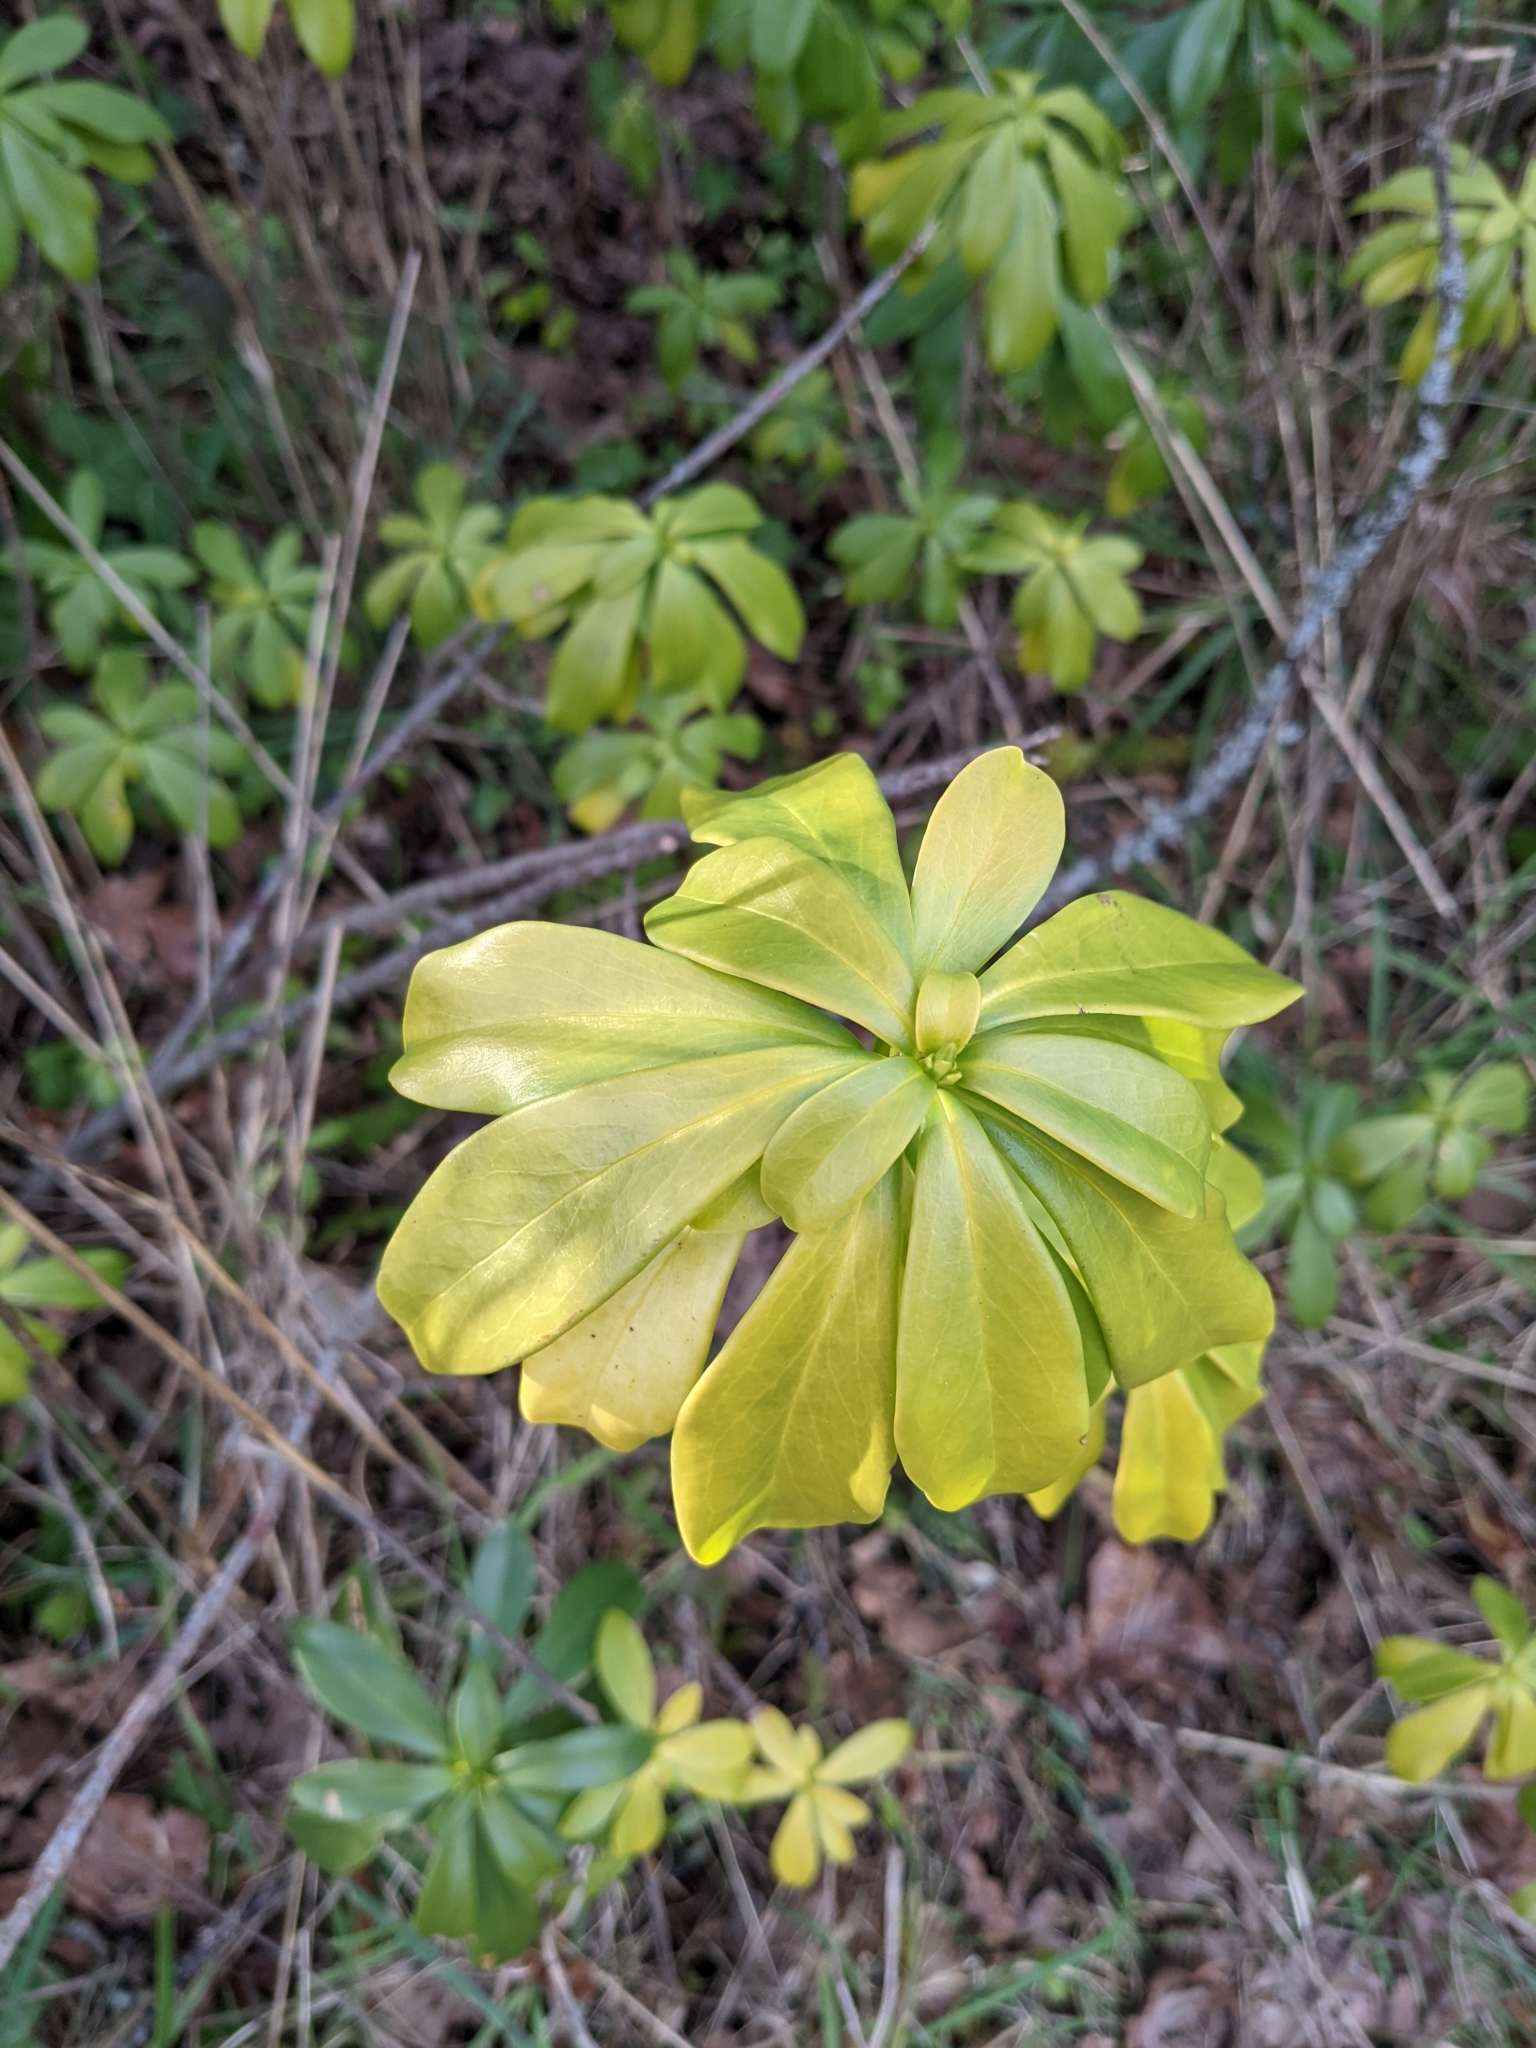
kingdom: Plantae
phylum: Tracheophyta
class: Magnoliopsida
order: Malvales
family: Thymelaeaceae
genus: Daphne
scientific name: Daphne laureola
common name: Spurge-laurel
